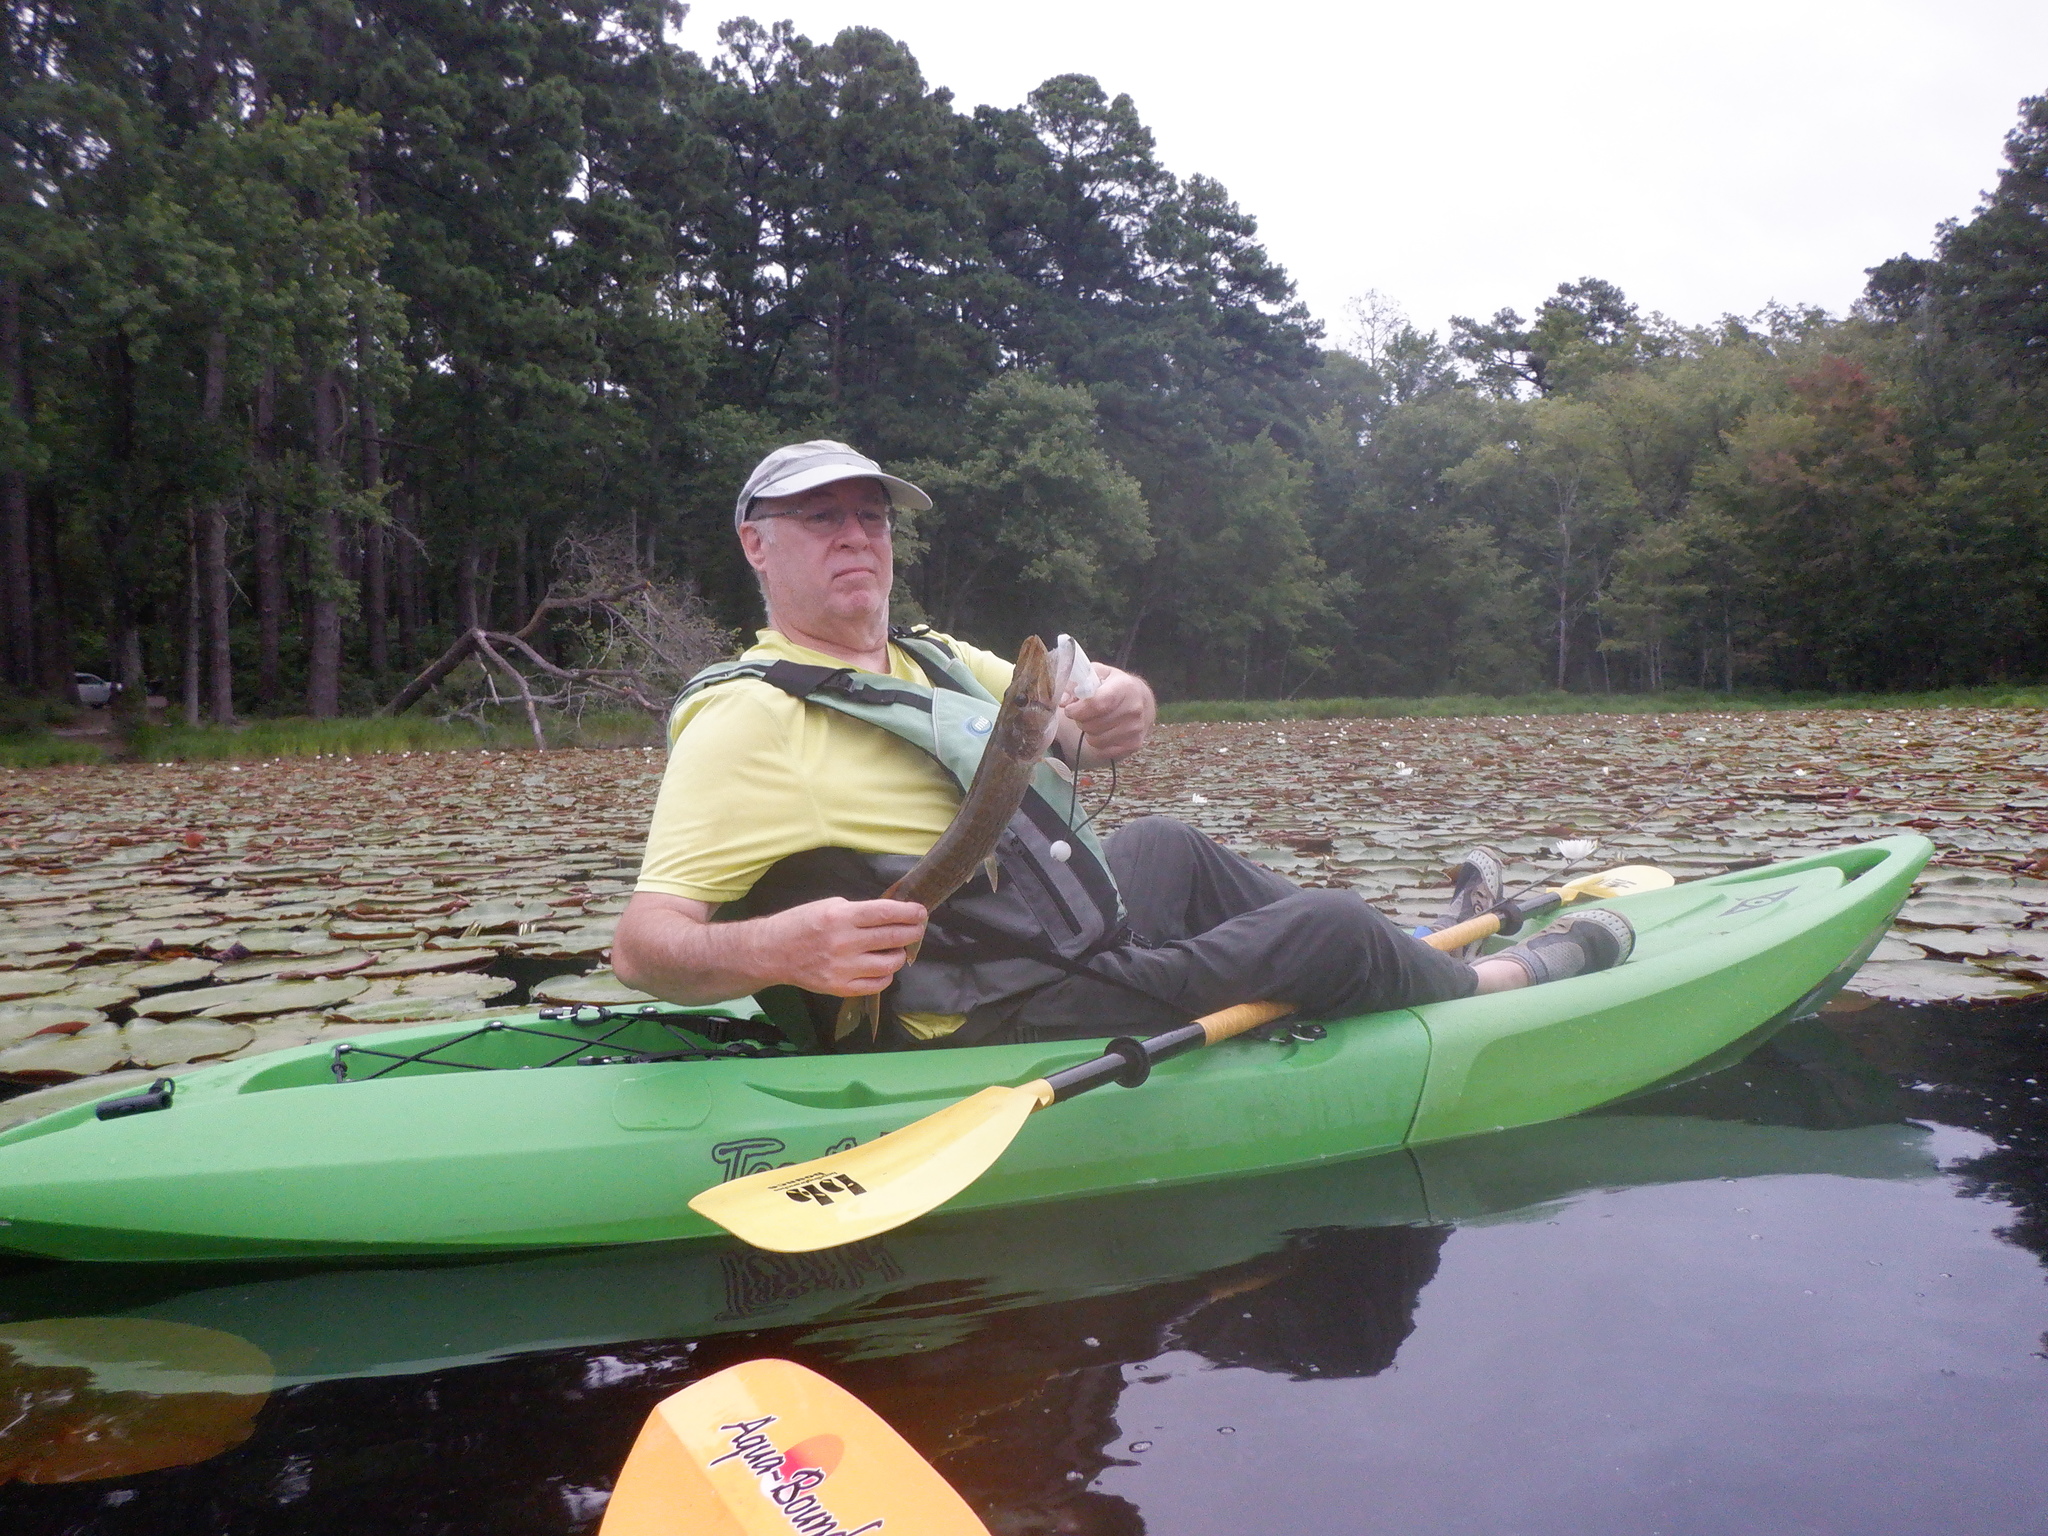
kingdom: Animalia
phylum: Chordata
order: Esociformes
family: Esocidae
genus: Esox
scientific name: Esox niger
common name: Chain pickerel
